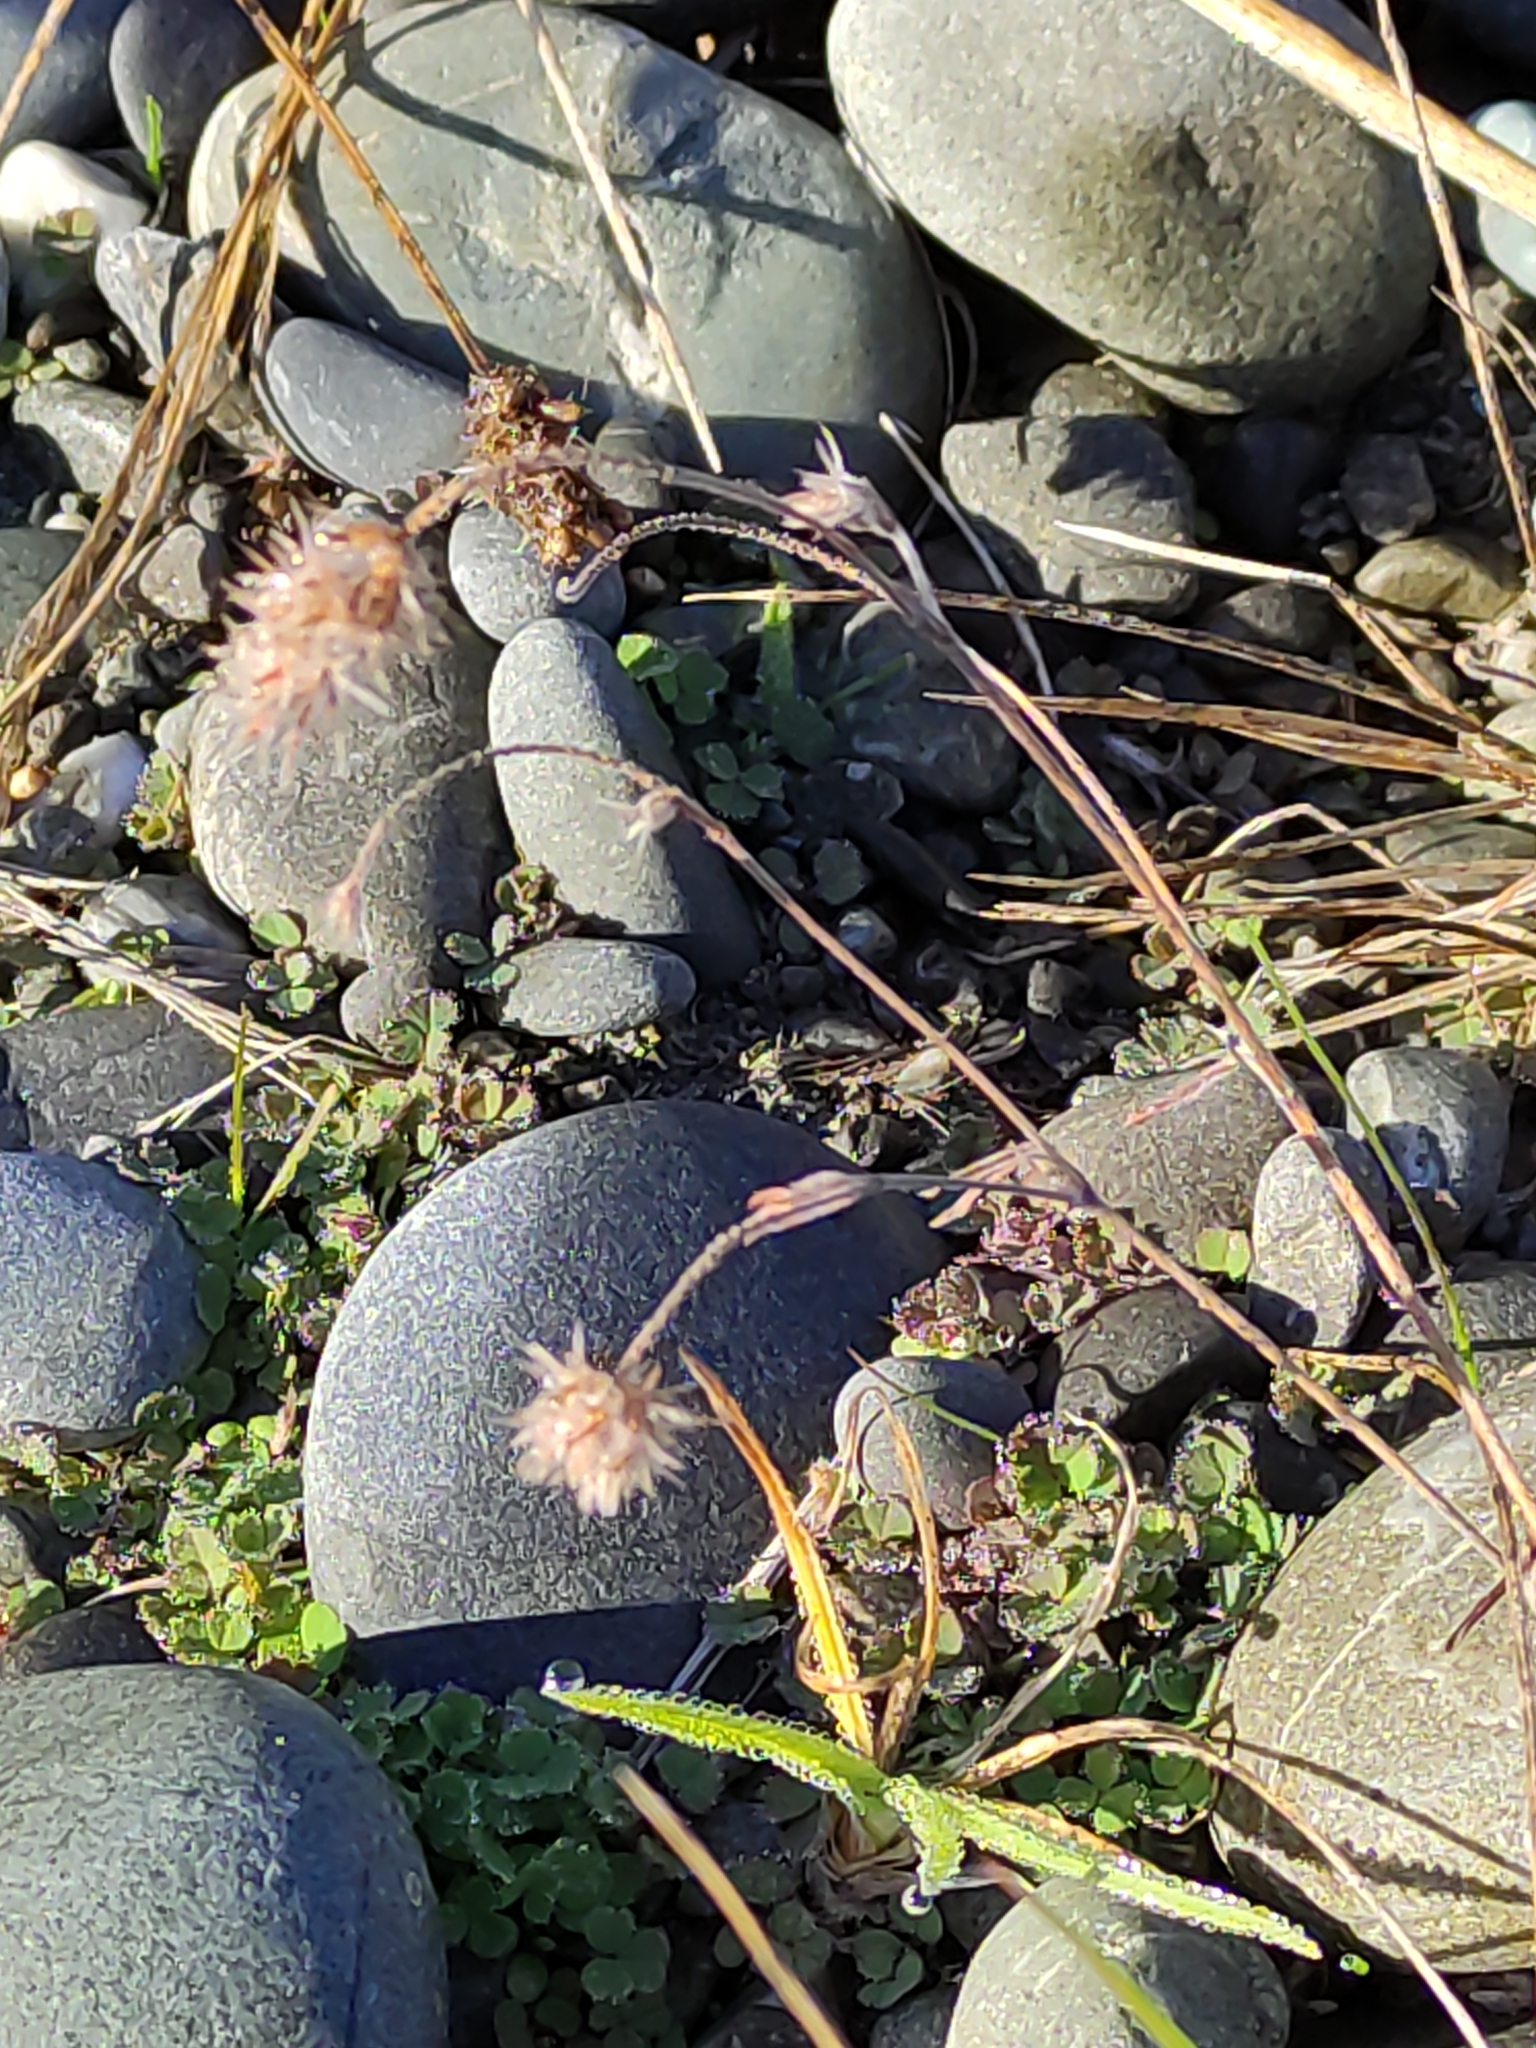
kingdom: Plantae
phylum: Tracheophyta
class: Magnoliopsida
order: Fabales
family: Fabaceae
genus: Trifolium
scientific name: Trifolium arvense
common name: Hare's-foot clover
